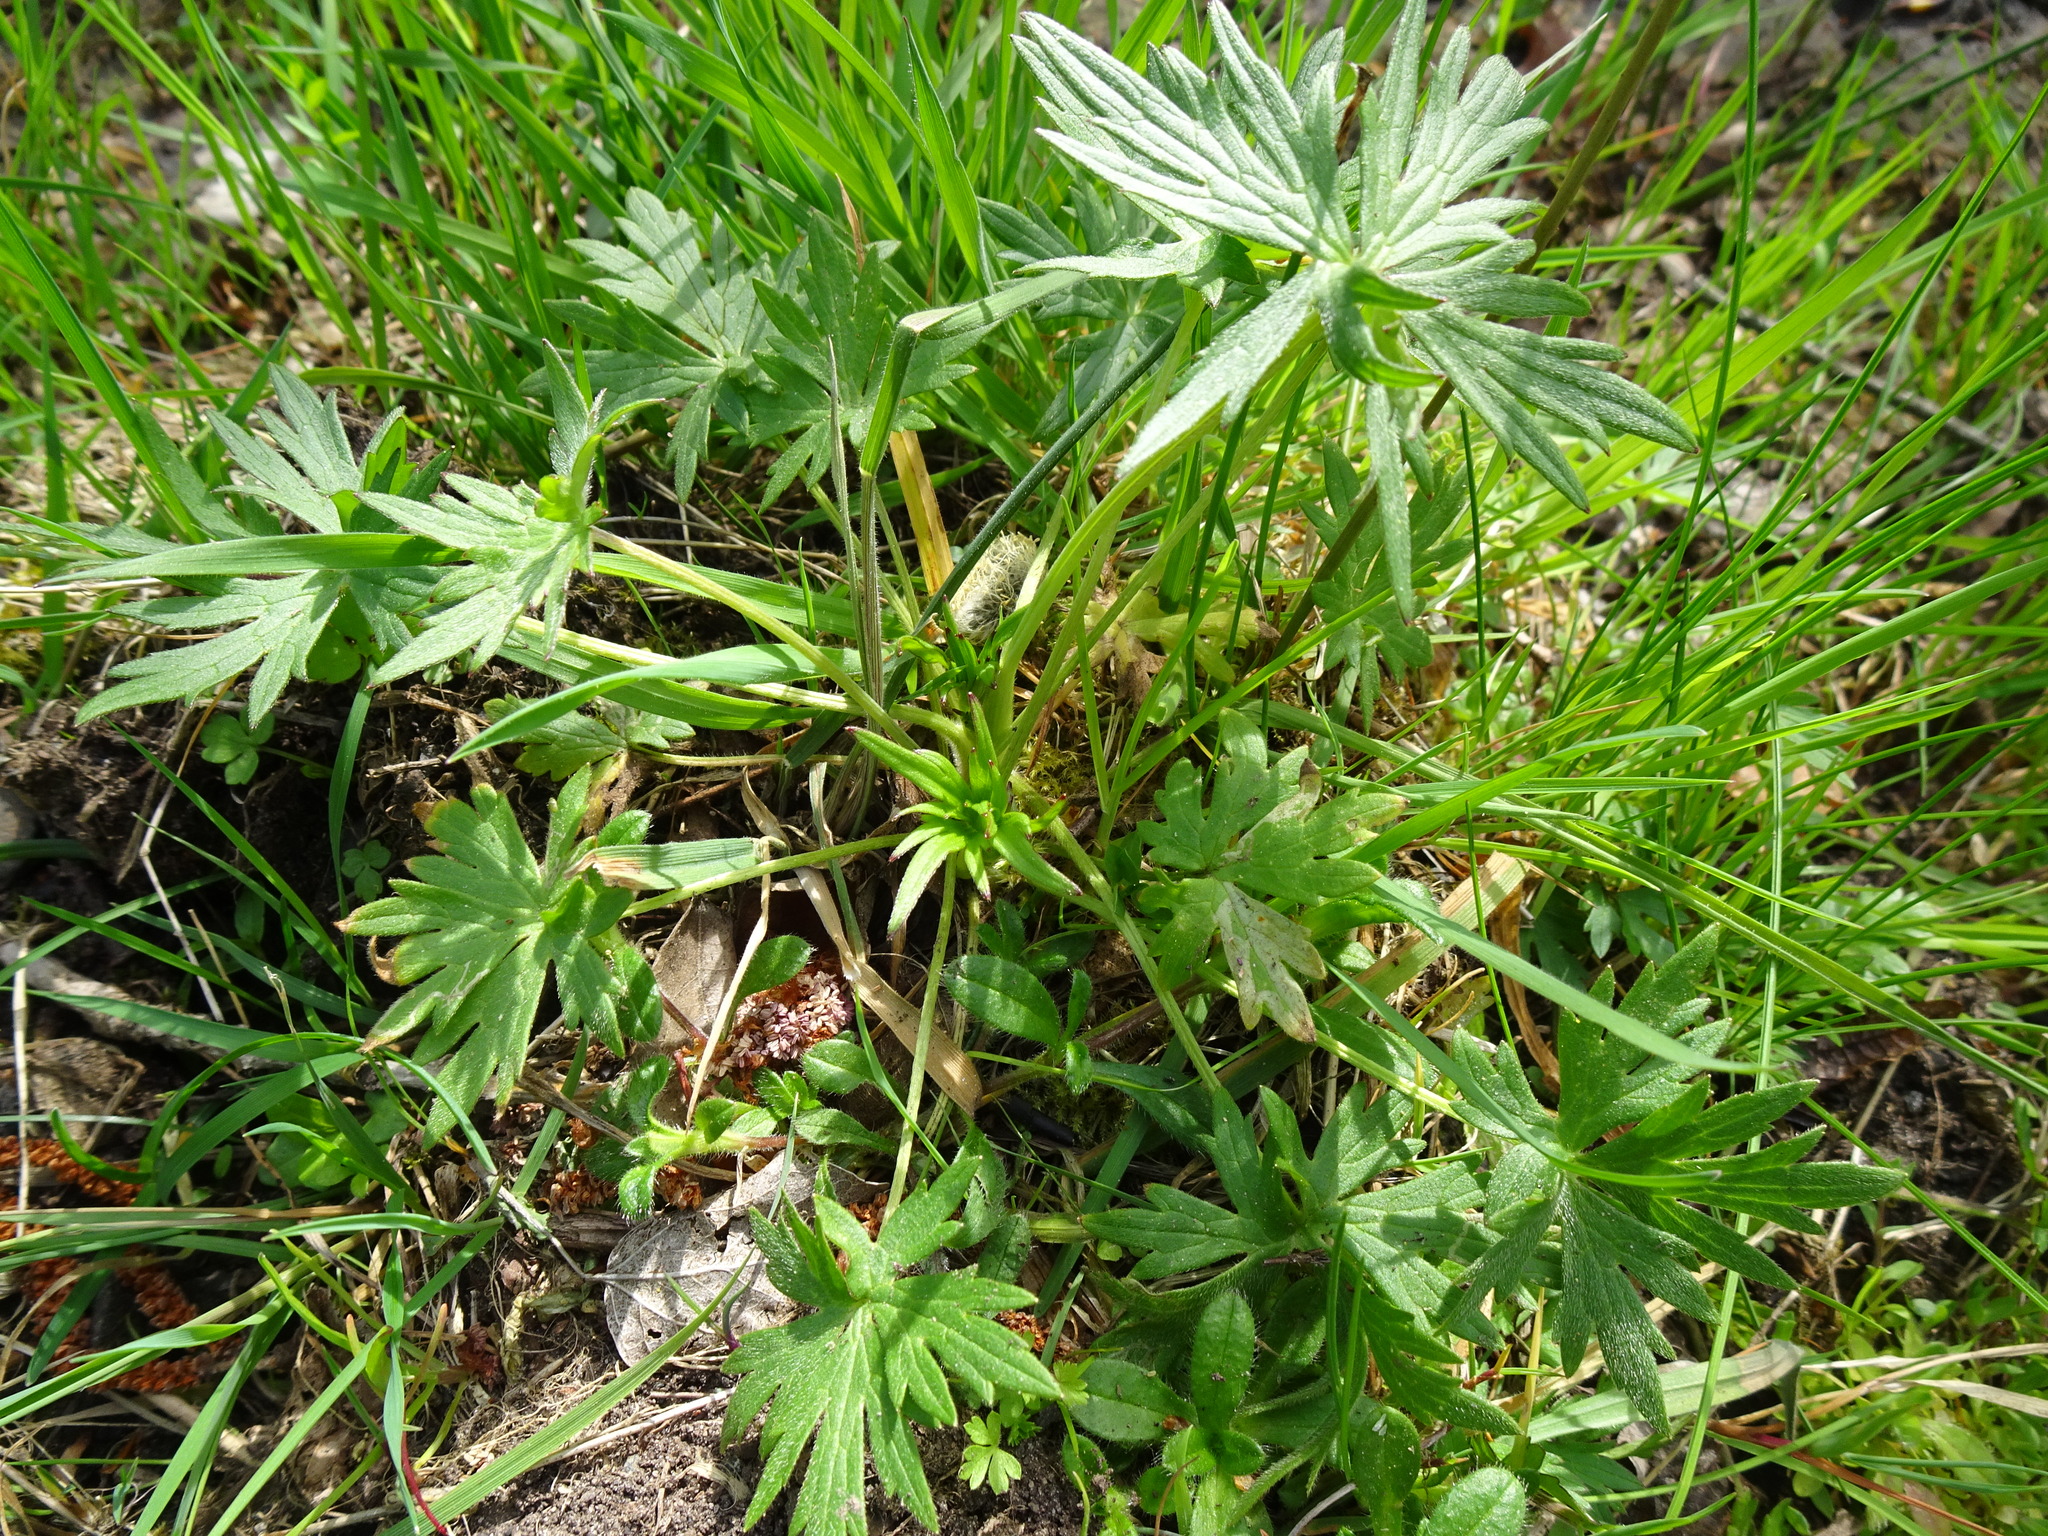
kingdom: Plantae
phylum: Tracheophyta
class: Magnoliopsida
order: Ranunculales
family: Ranunculaceae
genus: Ranunculus
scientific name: Ranunculus acris
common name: Meadow buttercup
